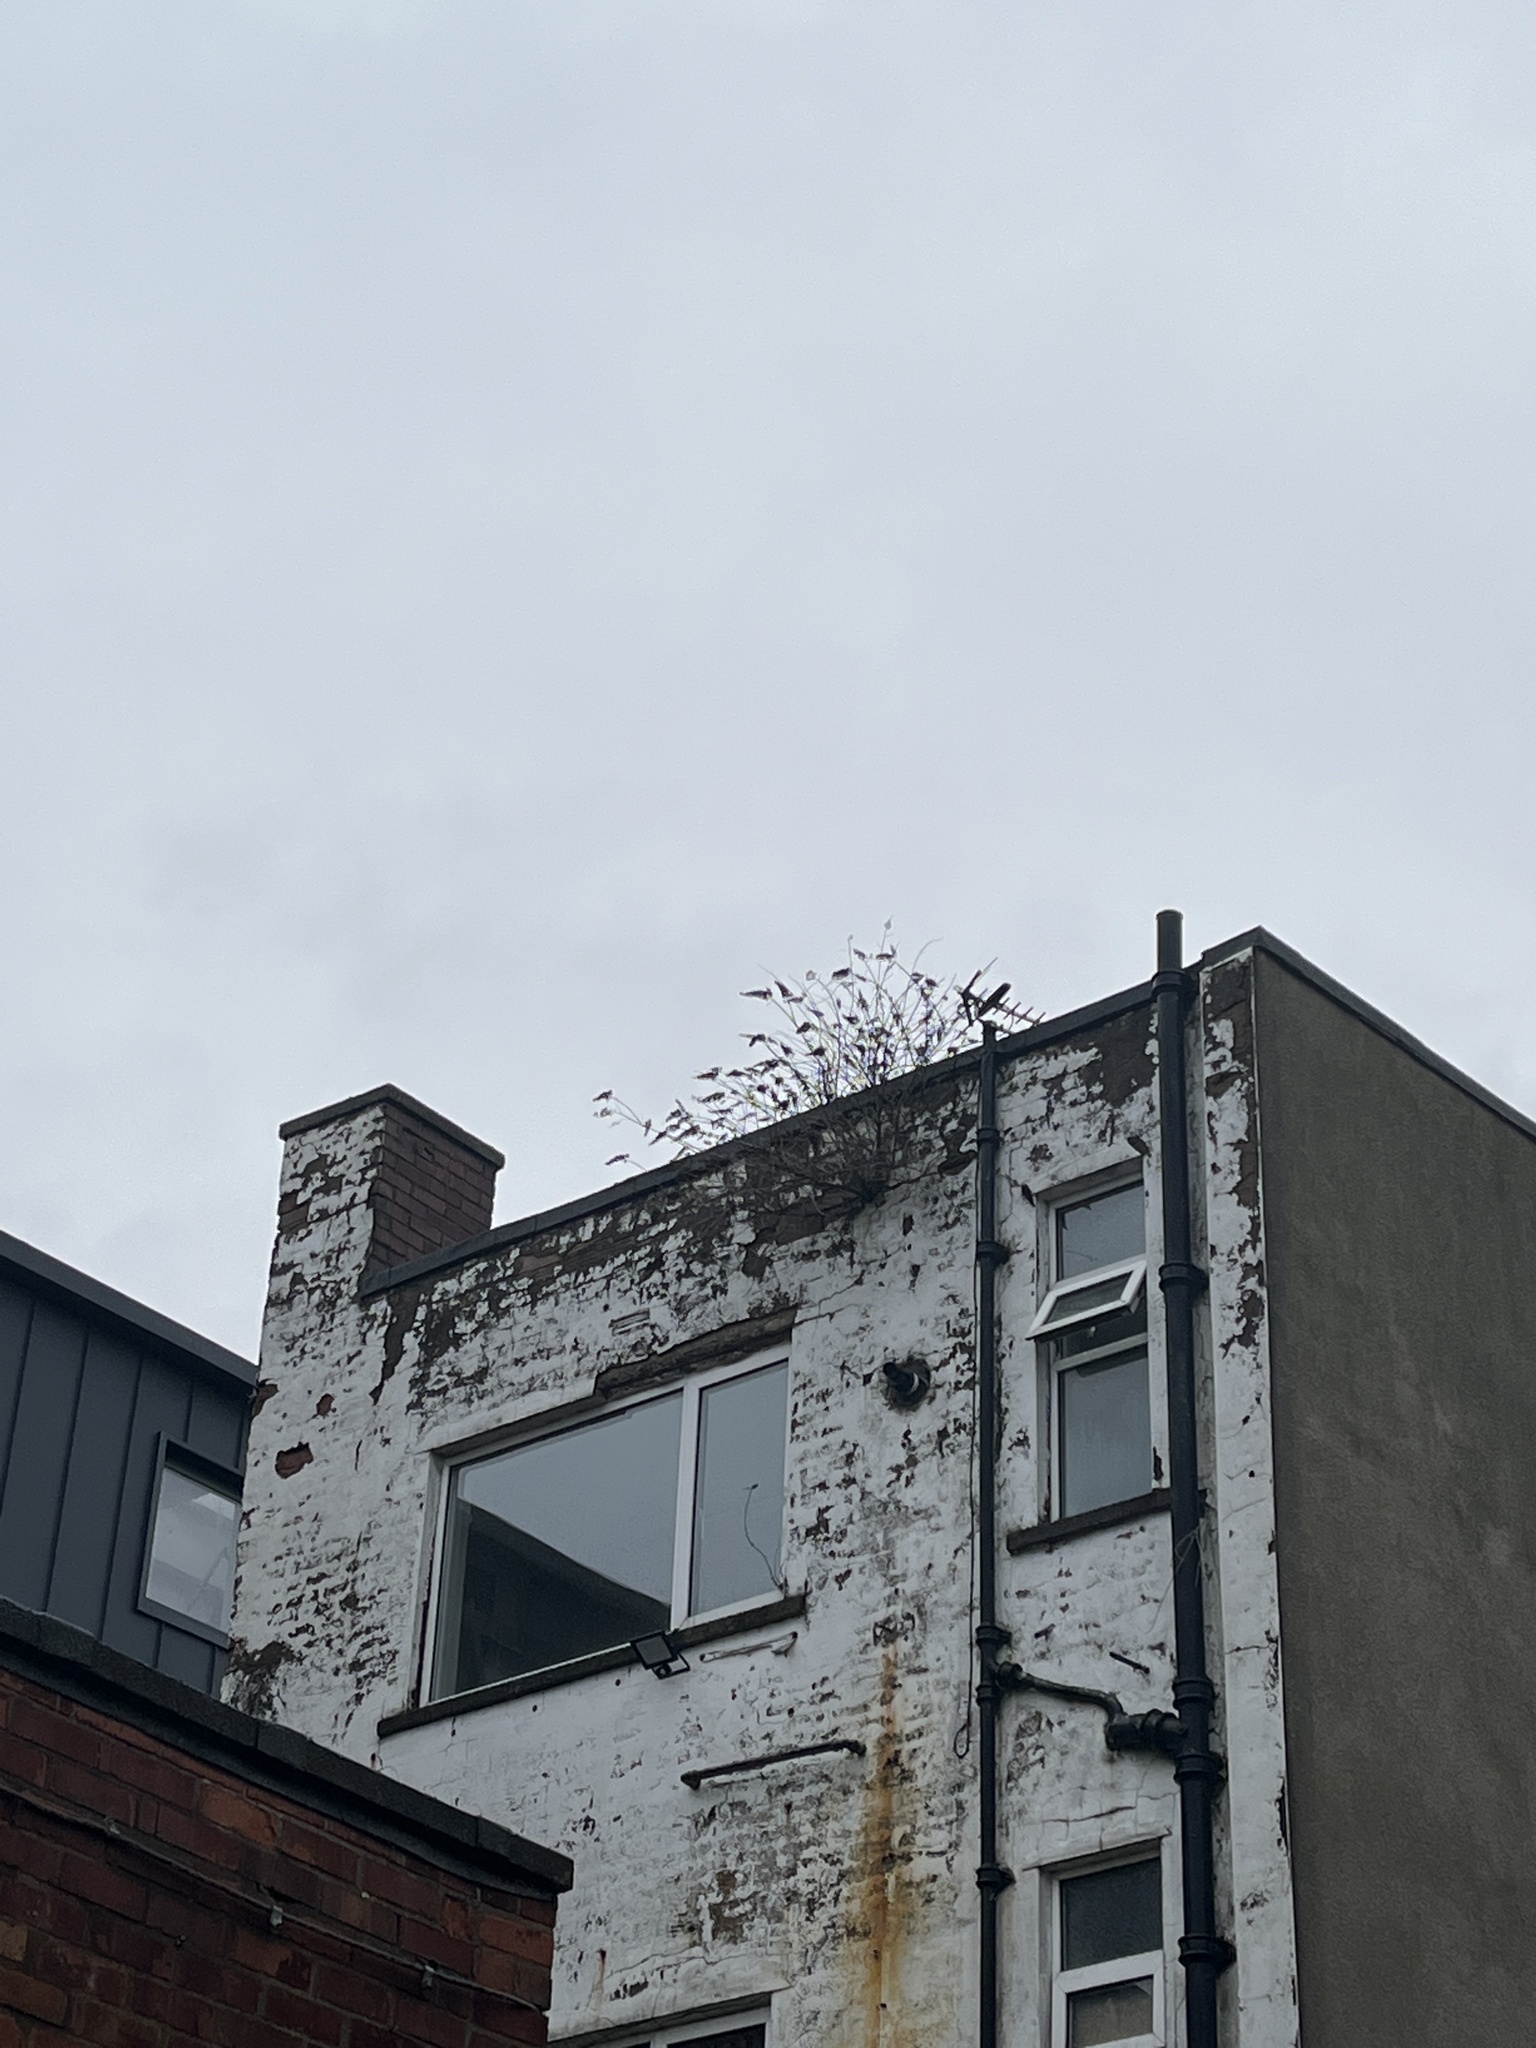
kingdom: Plantae
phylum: Tracheophyta
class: Magnoliopsida
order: Lamiales
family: Scrophulariaceae
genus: Buddleja
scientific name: Buddleja davidii
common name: Butterfly-bush
